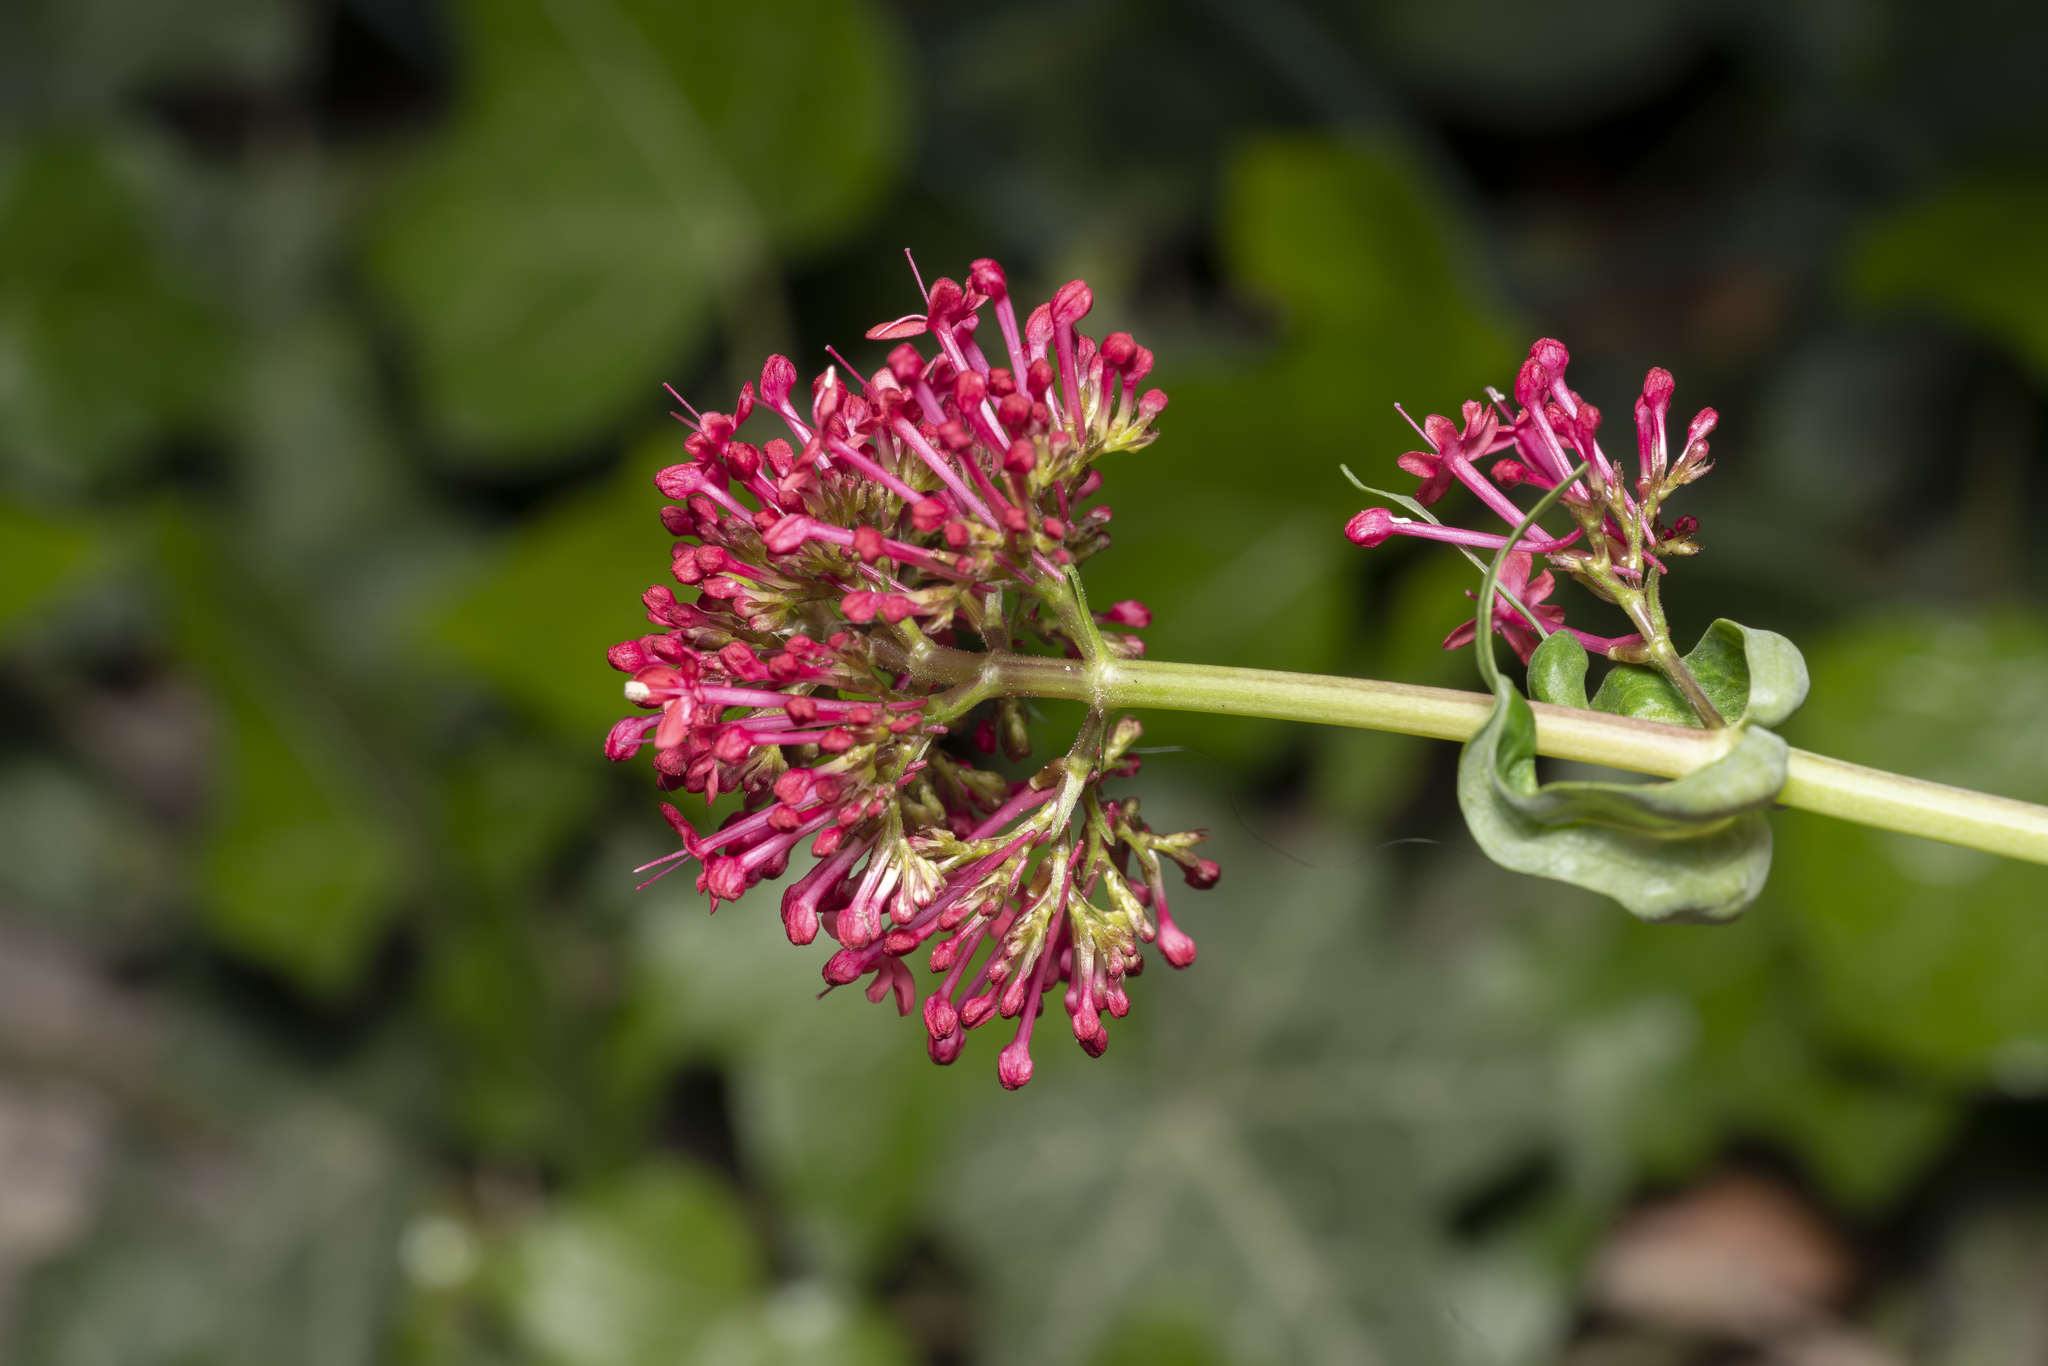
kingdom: Plantae
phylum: Tracheophyta
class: Magnoliopsida
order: Dipsacales
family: Caprifoliaceae
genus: Centranthus
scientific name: Centranthus ruber
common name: Red valerian
